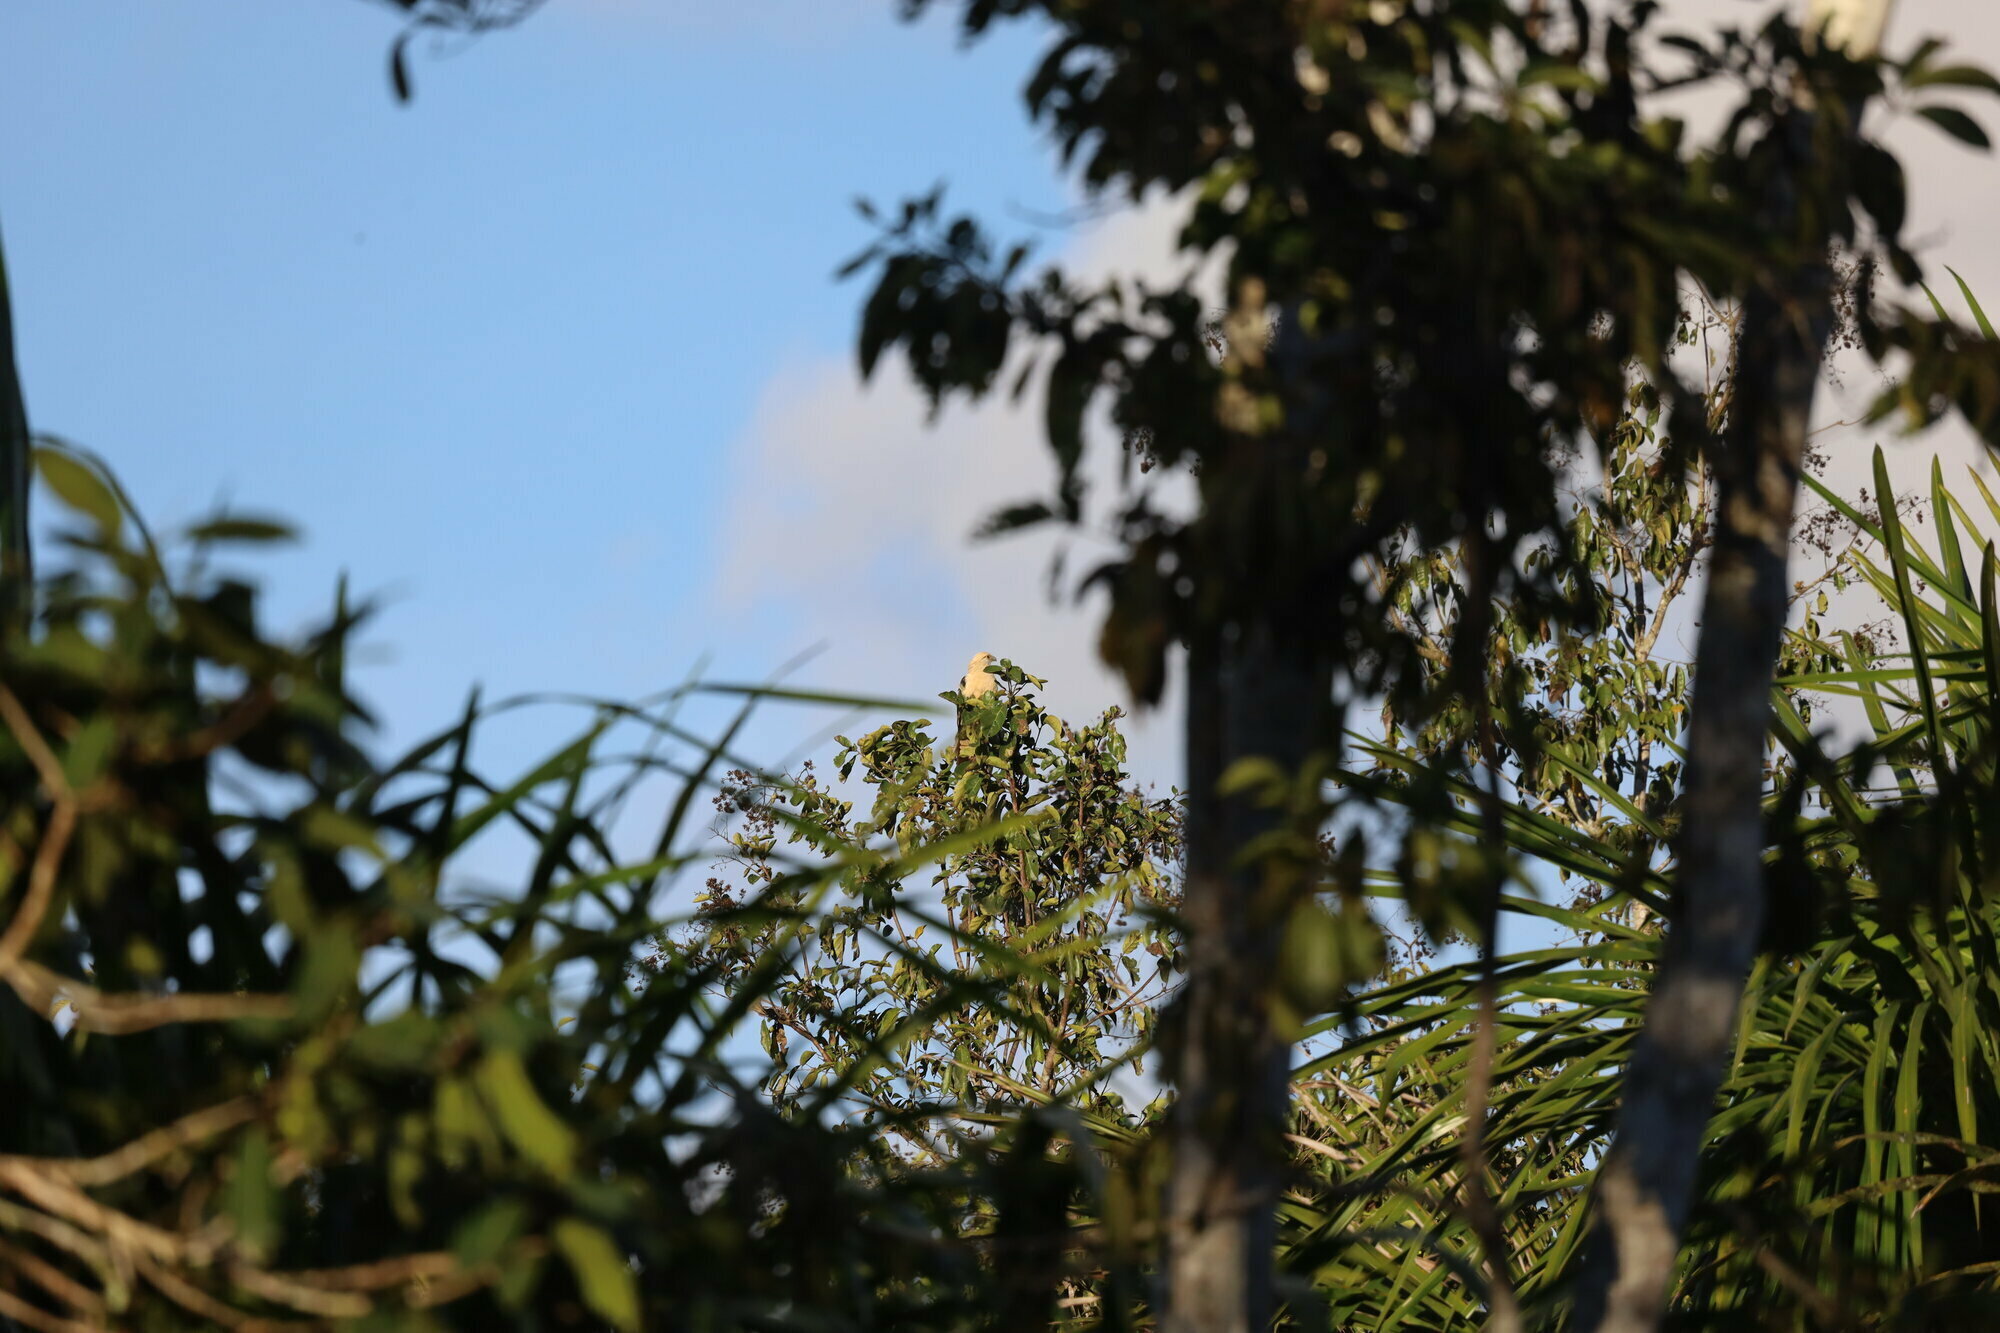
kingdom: Animalia
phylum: Chordata
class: Aves
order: Falconiformes
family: Falconidae
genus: Daptrius
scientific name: Daptrius
